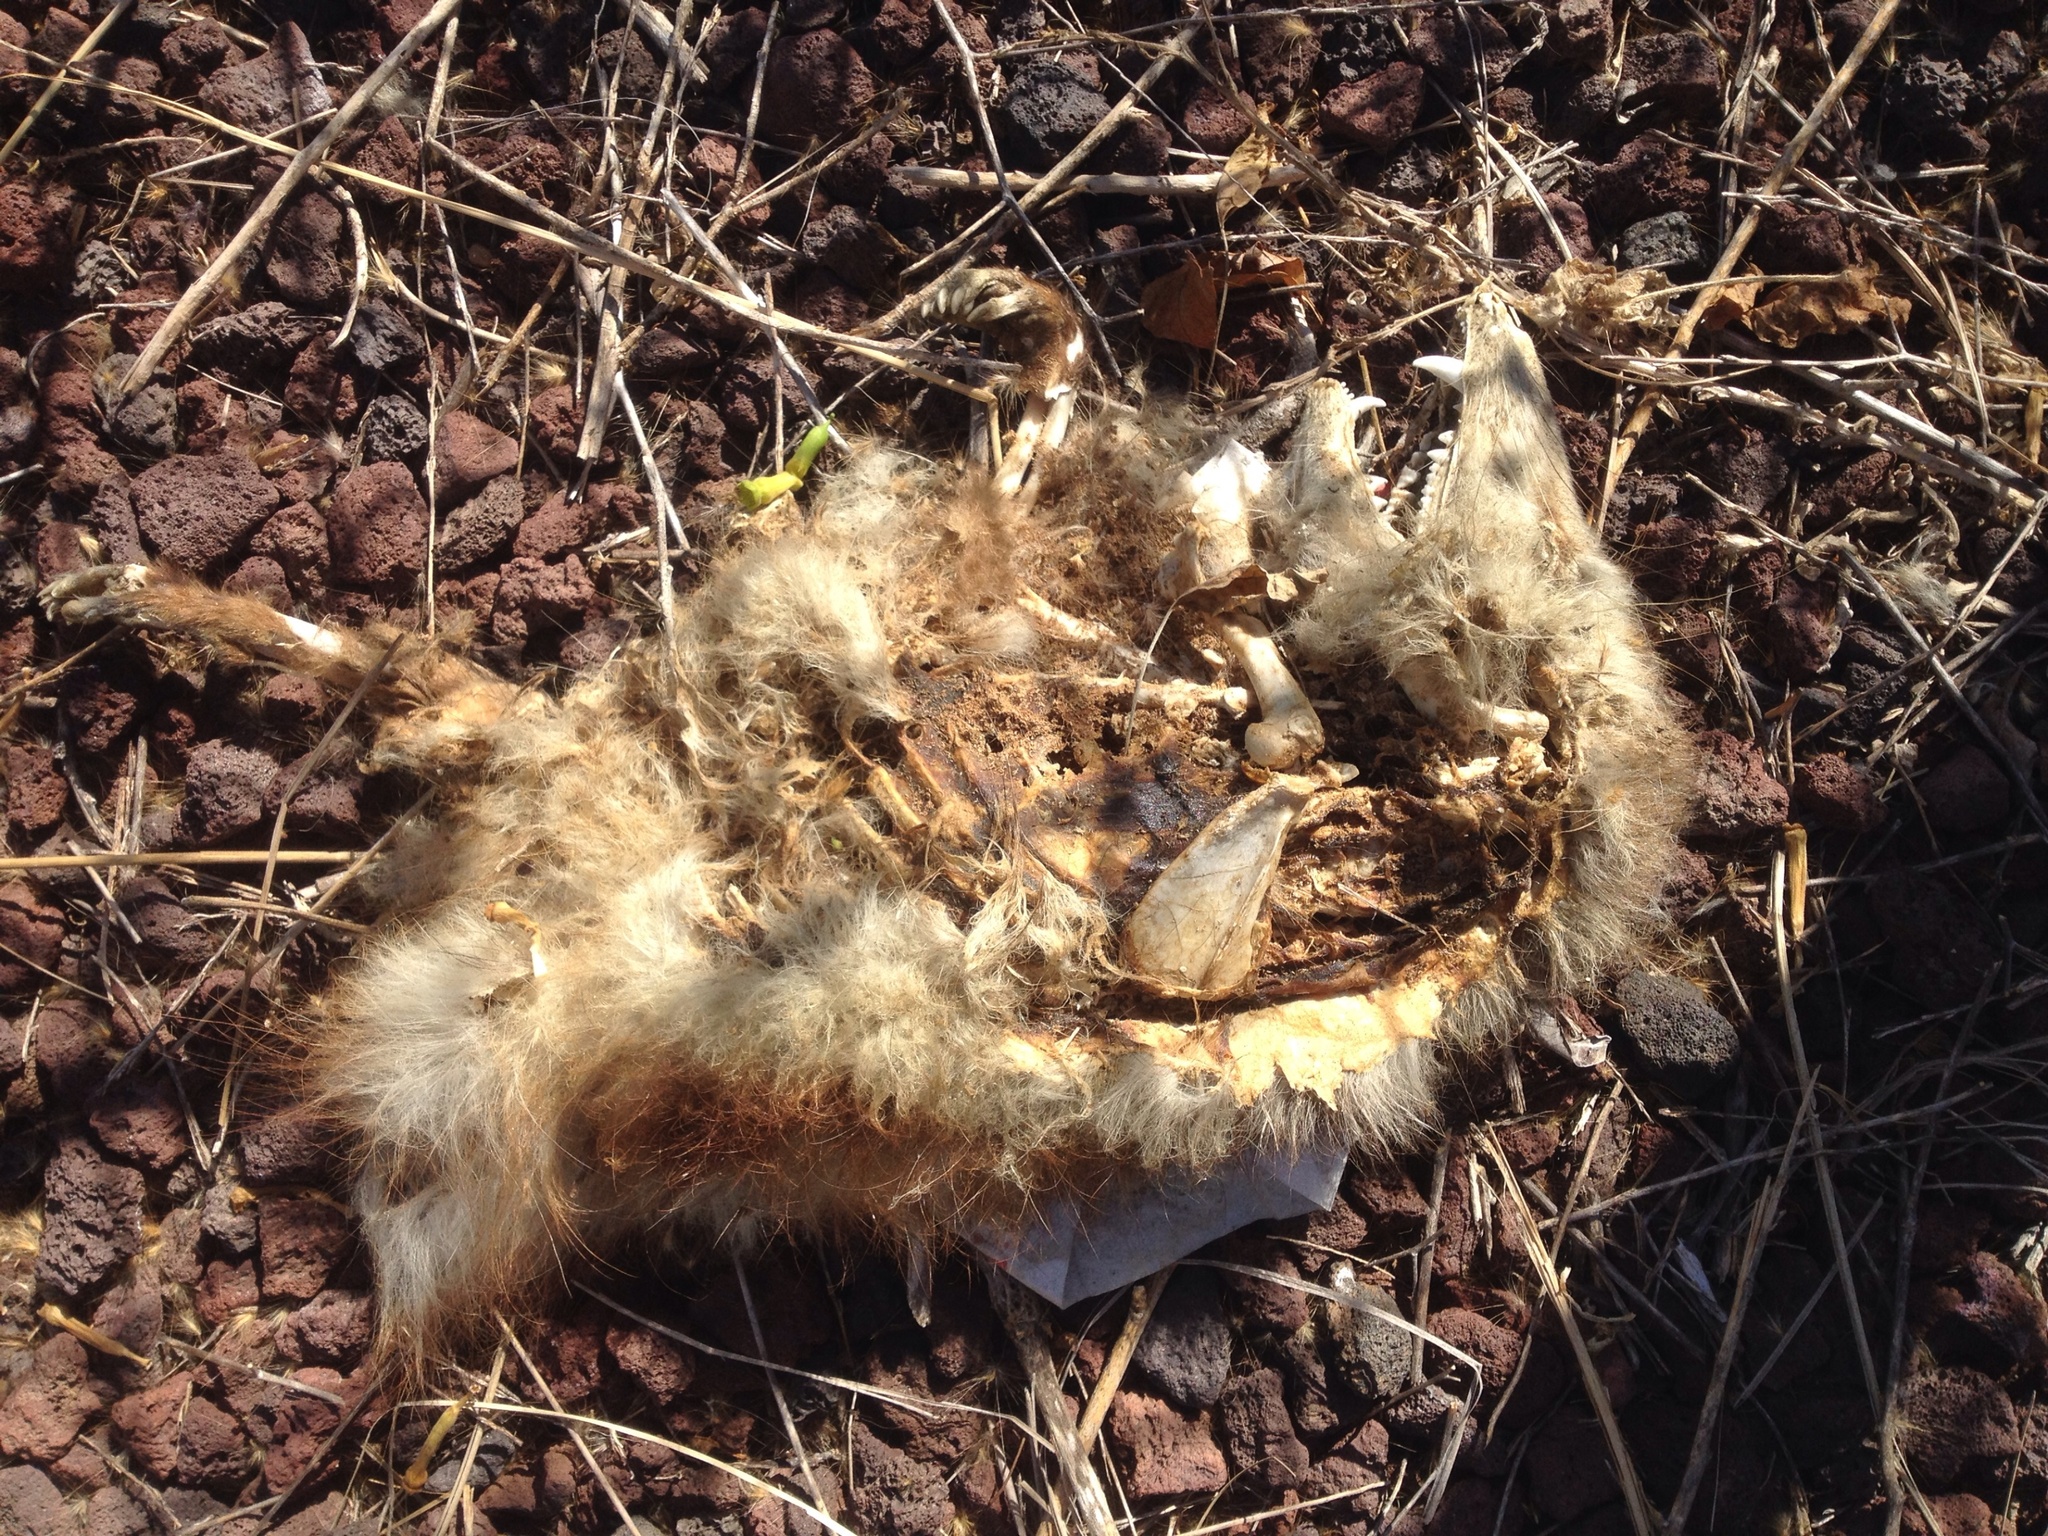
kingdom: Animalia
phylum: Chordata
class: Mammalia
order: Didelphimorphia
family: Didelphidae
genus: Didelphis
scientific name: Didelphis virginiana
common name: Virginia opossum
